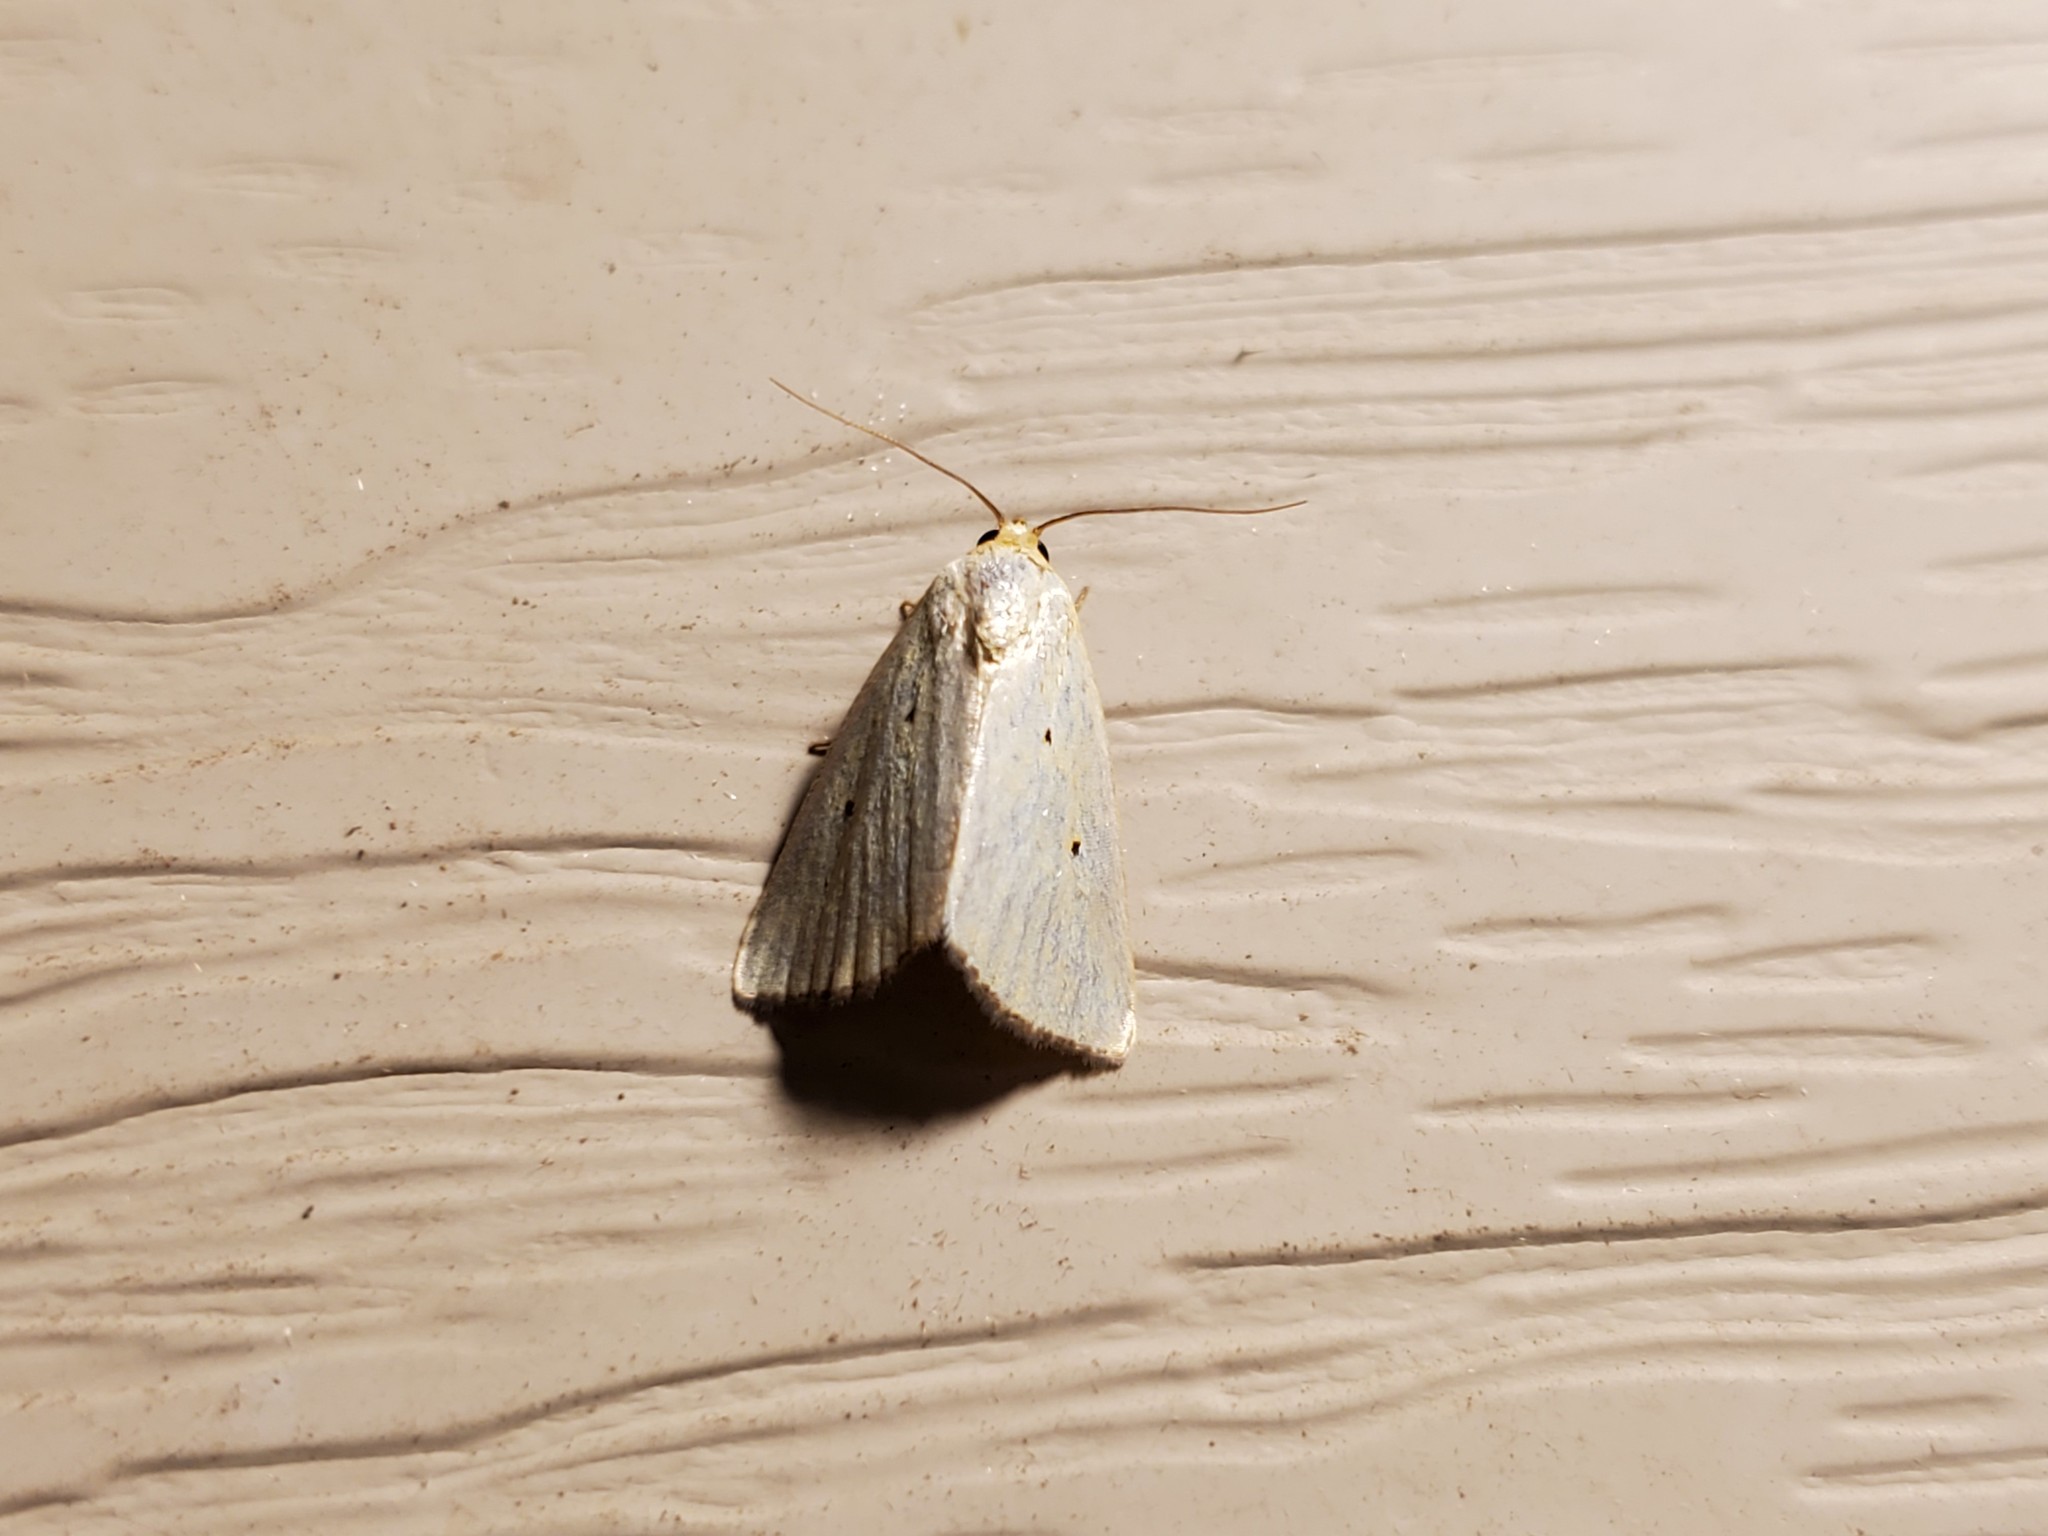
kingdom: Animalia
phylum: Arthropoda
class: Insecta
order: Lepidoptera
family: Noctuidae
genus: Marimatha
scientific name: Marimatha nigrofimbria
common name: Black-bordered lemon moth
